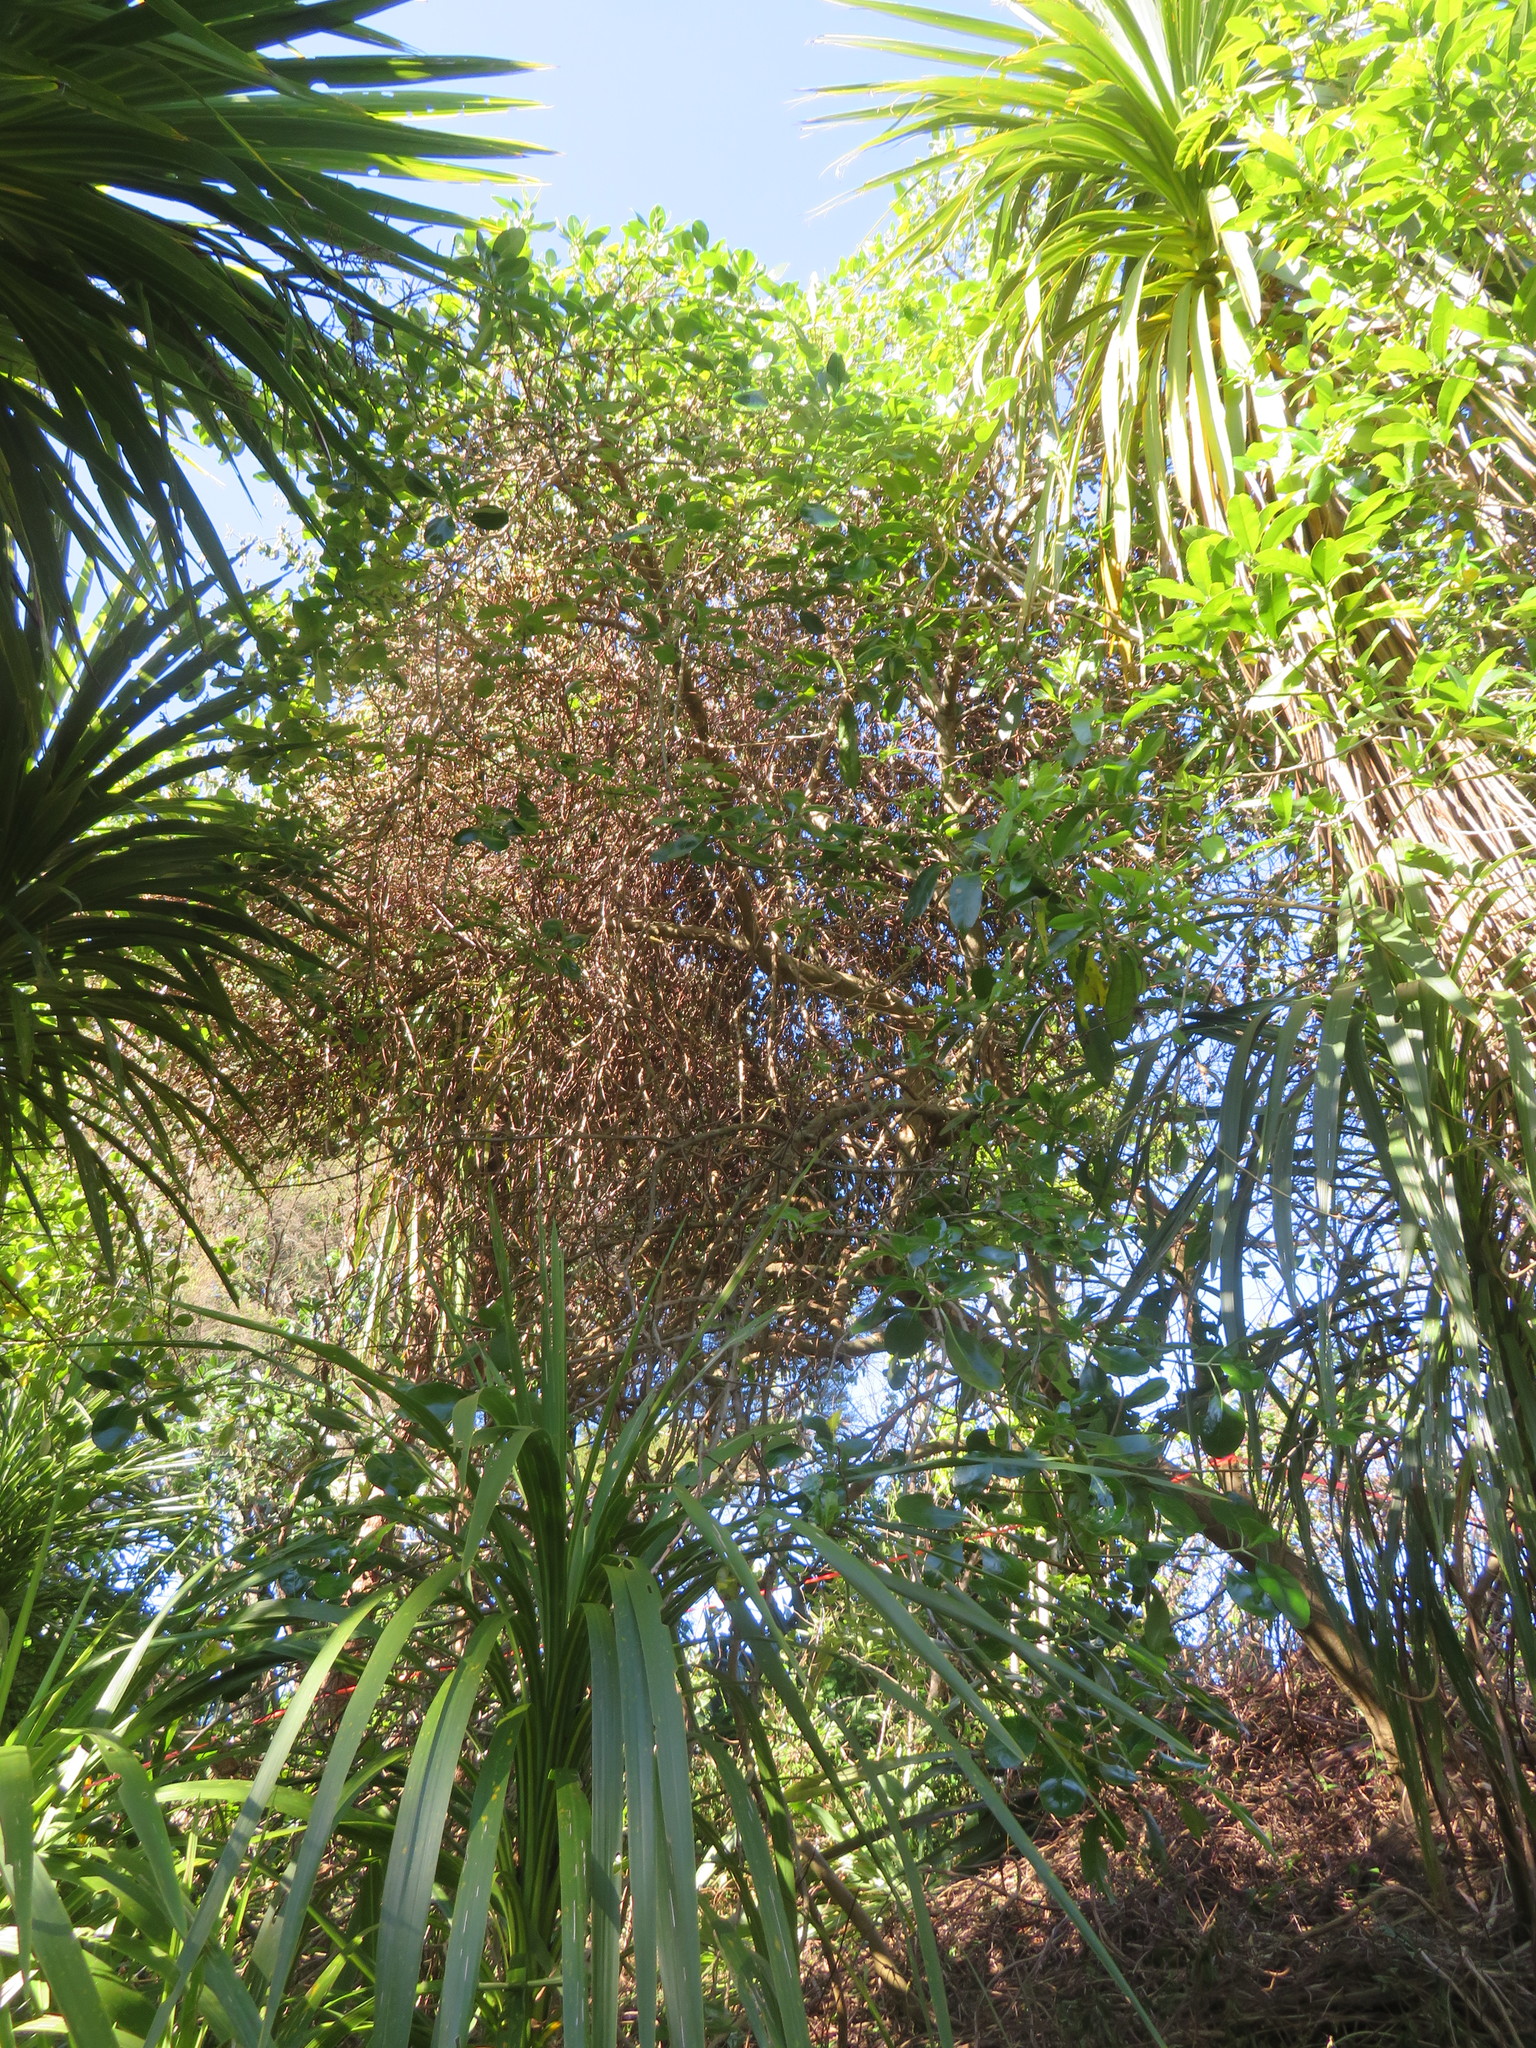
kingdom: Plantae
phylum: Tracheophyta
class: Magnoliopsida
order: Gentianales
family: Rubiaceae
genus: Coprosma
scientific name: Coprosma repens
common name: Tree bedstraw
